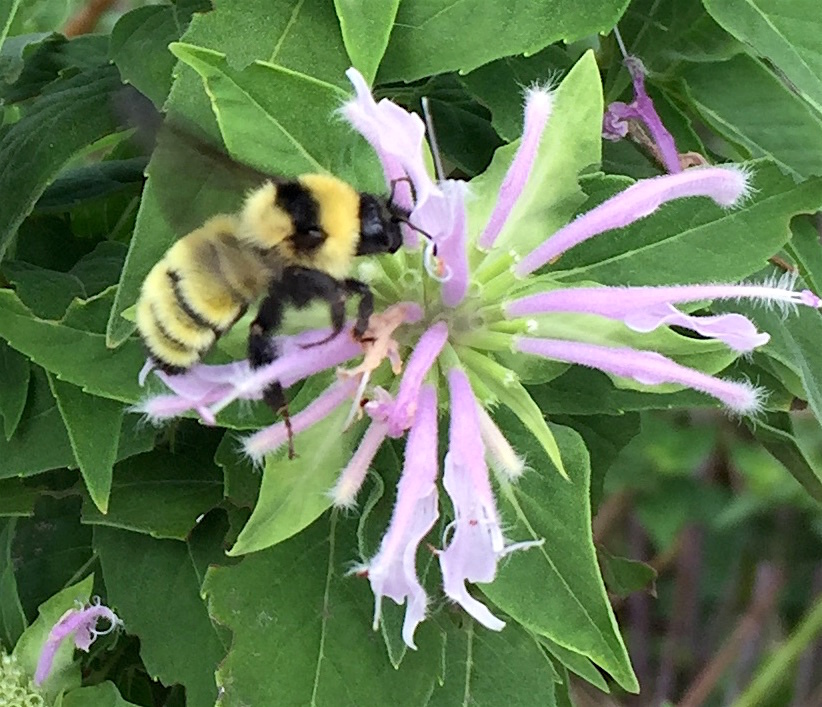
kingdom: Animalia
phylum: Arthropoda
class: Insecta
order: Hymenoptera
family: Apidae
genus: Bombus
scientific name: Bombus fervidus
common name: Yellow bumble bee
